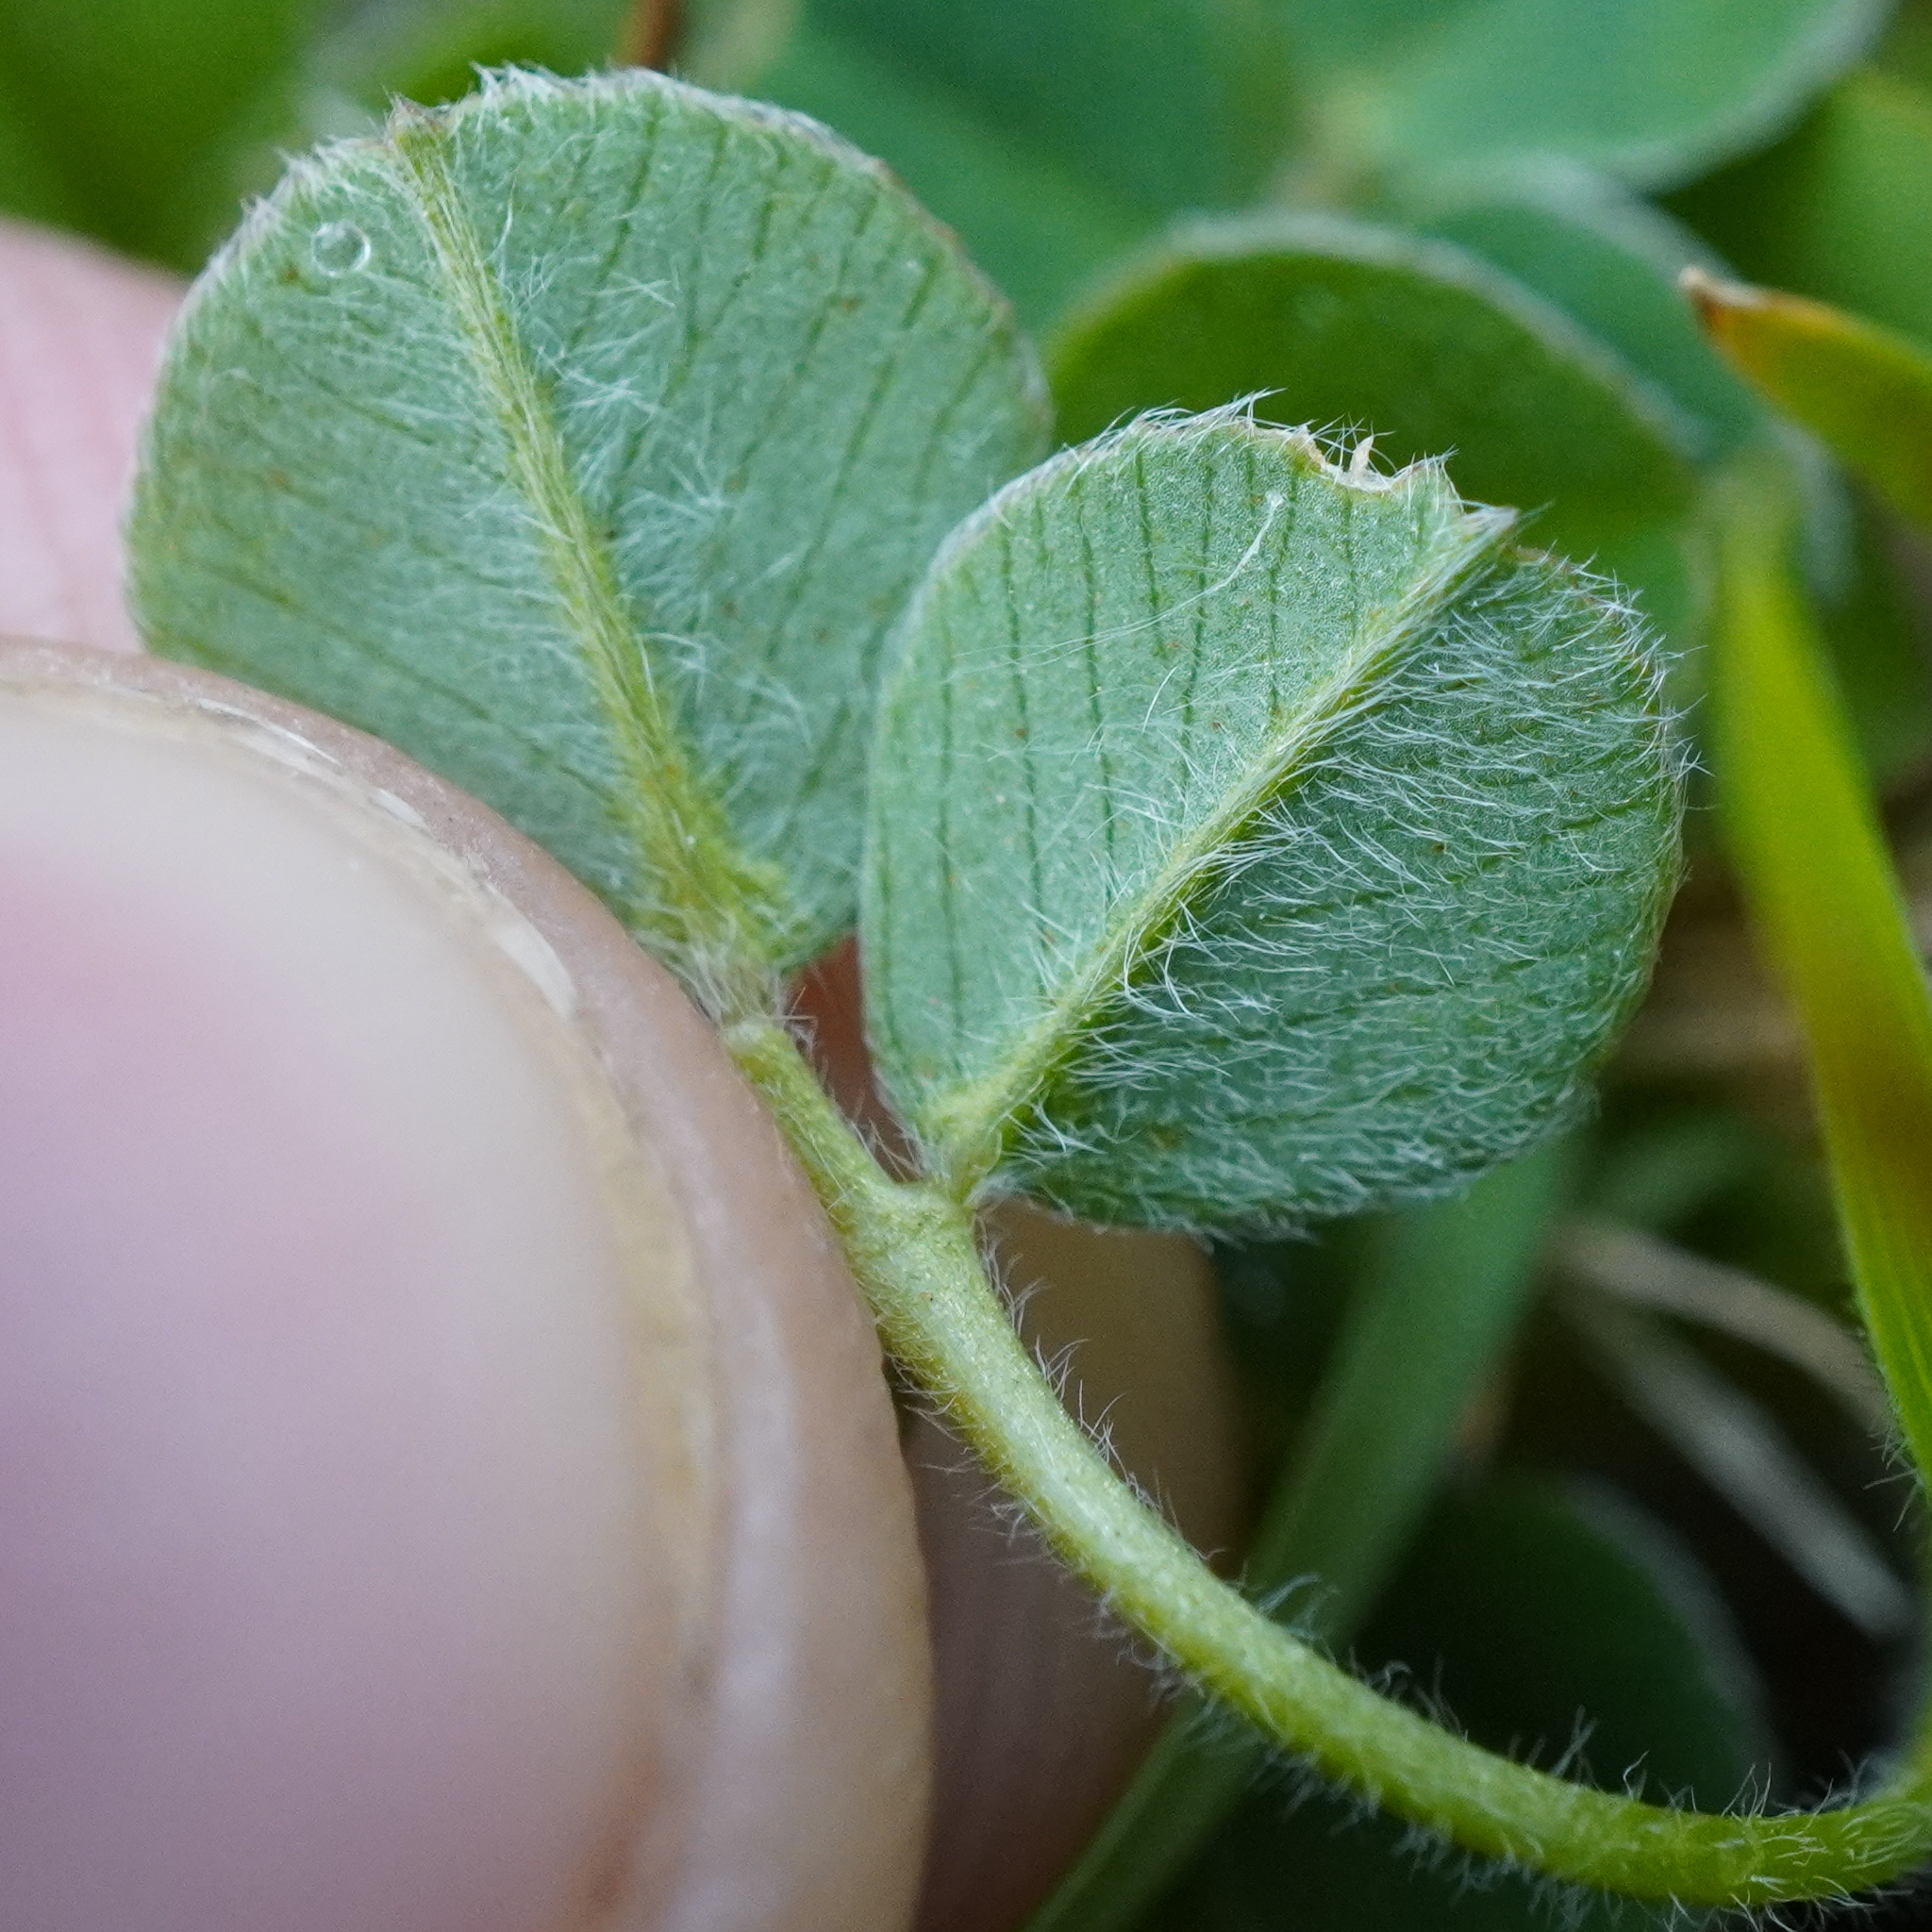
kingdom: Plantae
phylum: Tracheophyta
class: Magnoliopsida
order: Fabales
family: Fabaceae
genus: Medicago
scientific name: Medicago lupulina
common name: Black medick
